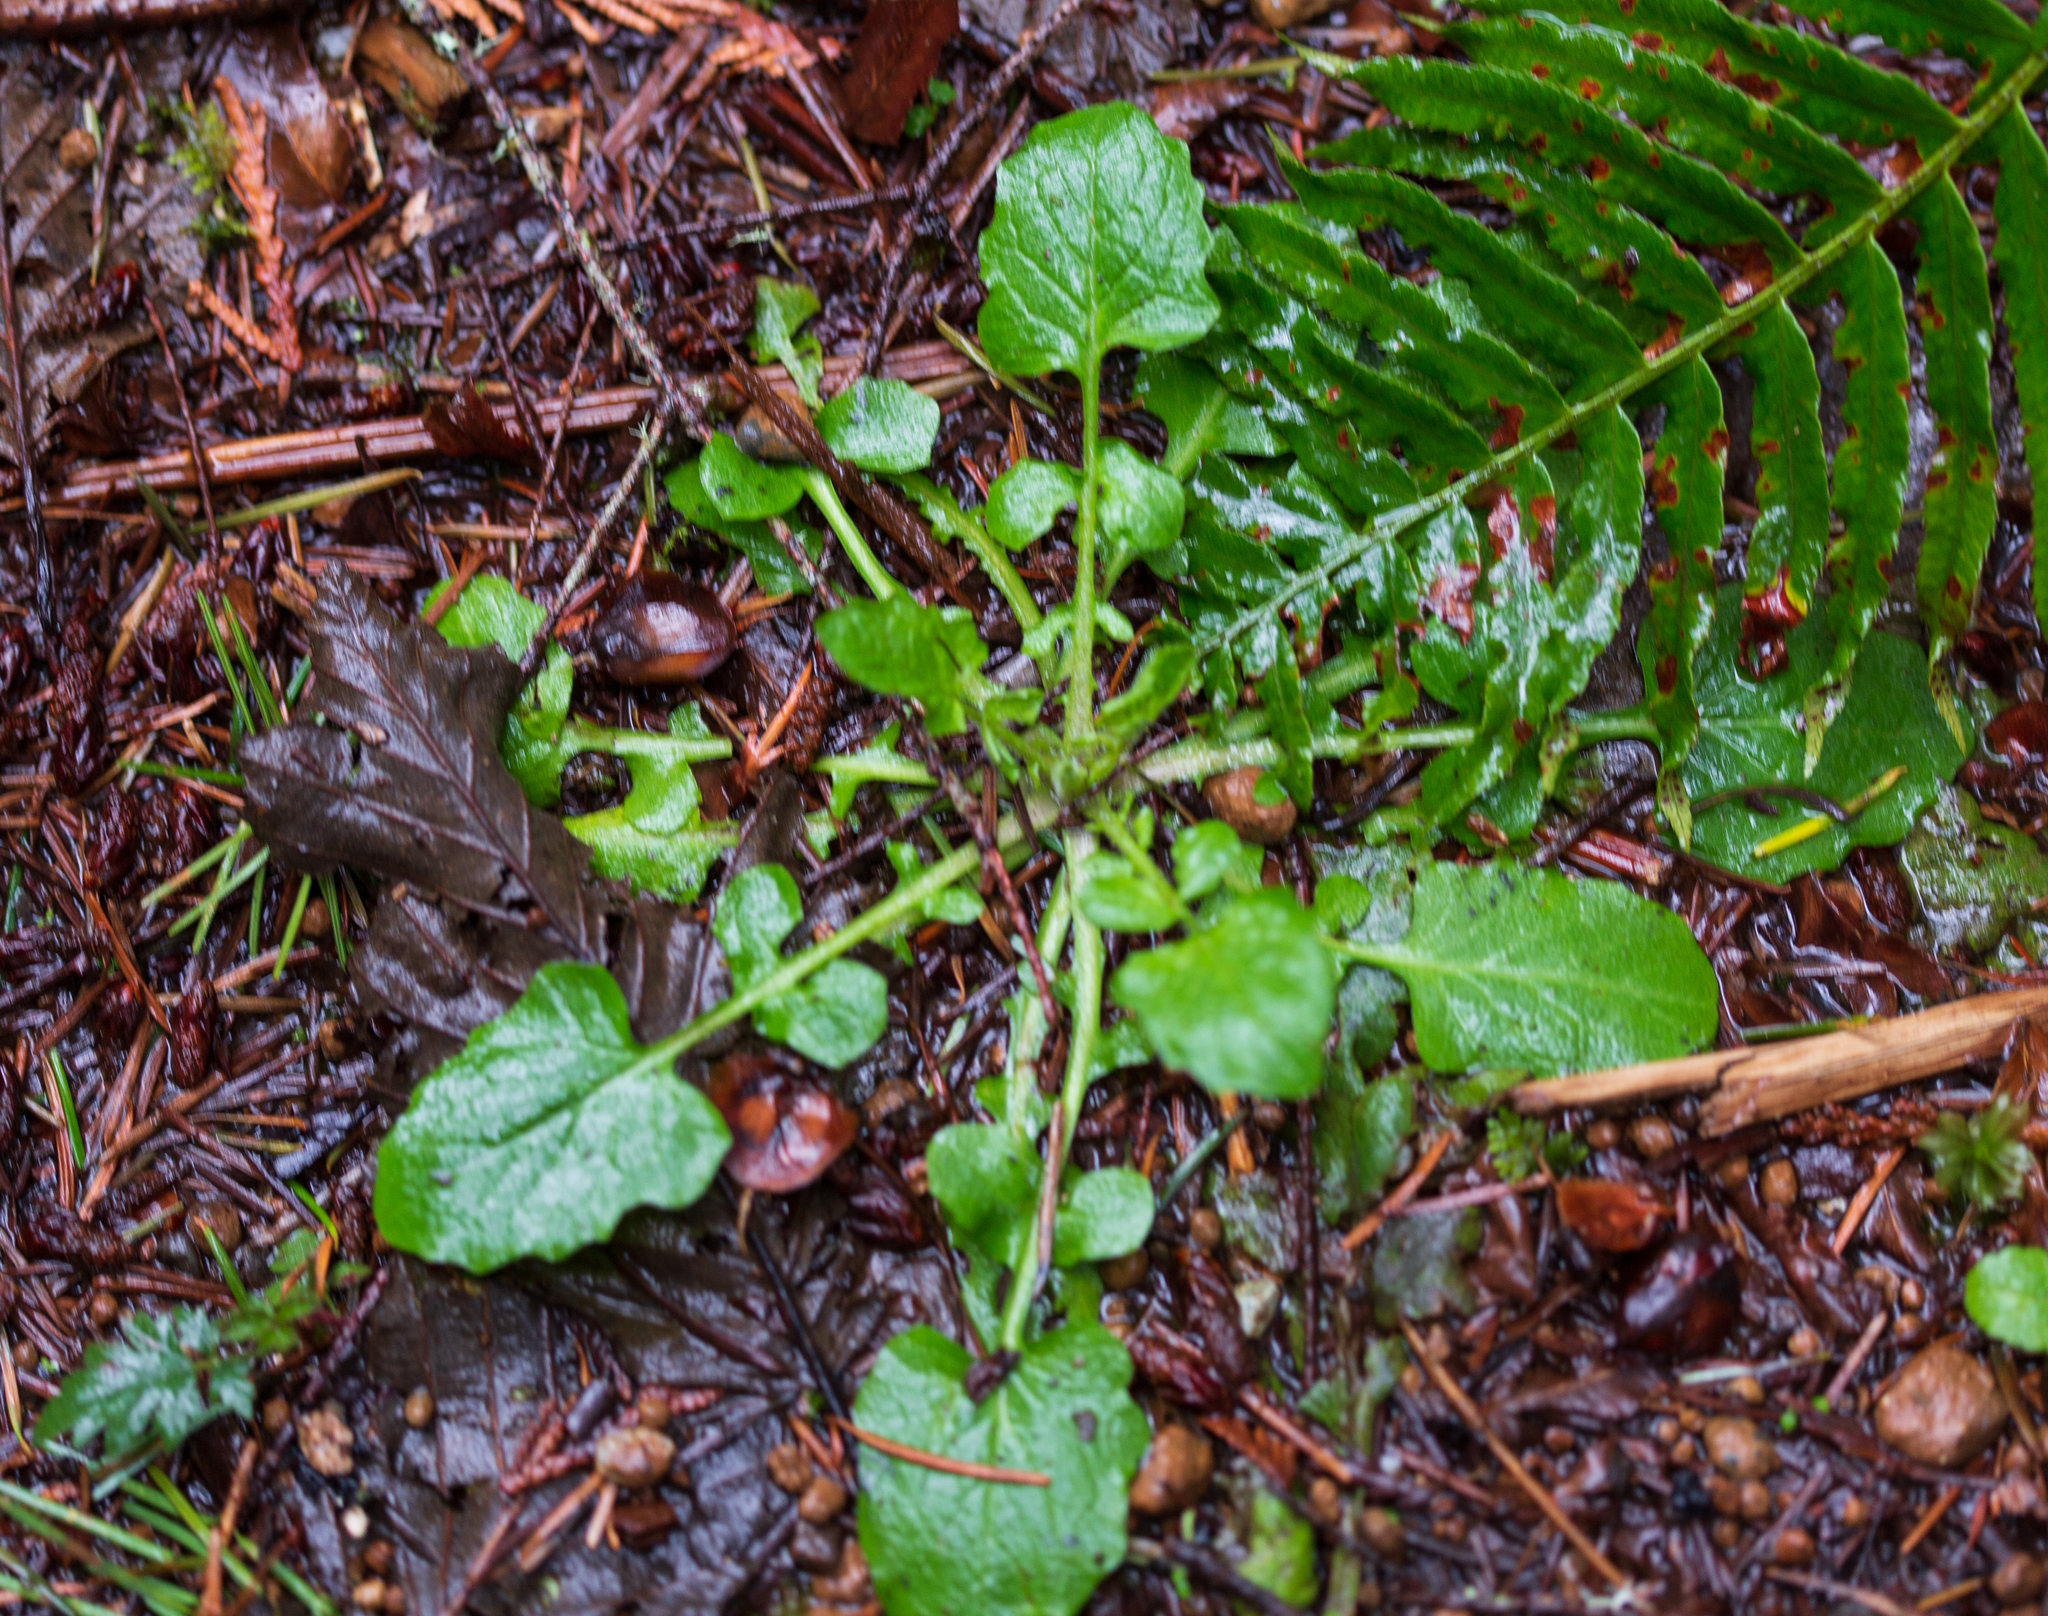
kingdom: Plantae
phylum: Tracheophyta
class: Magnoliopsida
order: Asterales
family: Asteraceae
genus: Lapsana
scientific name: Lapsana communis
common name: Nipplewort
